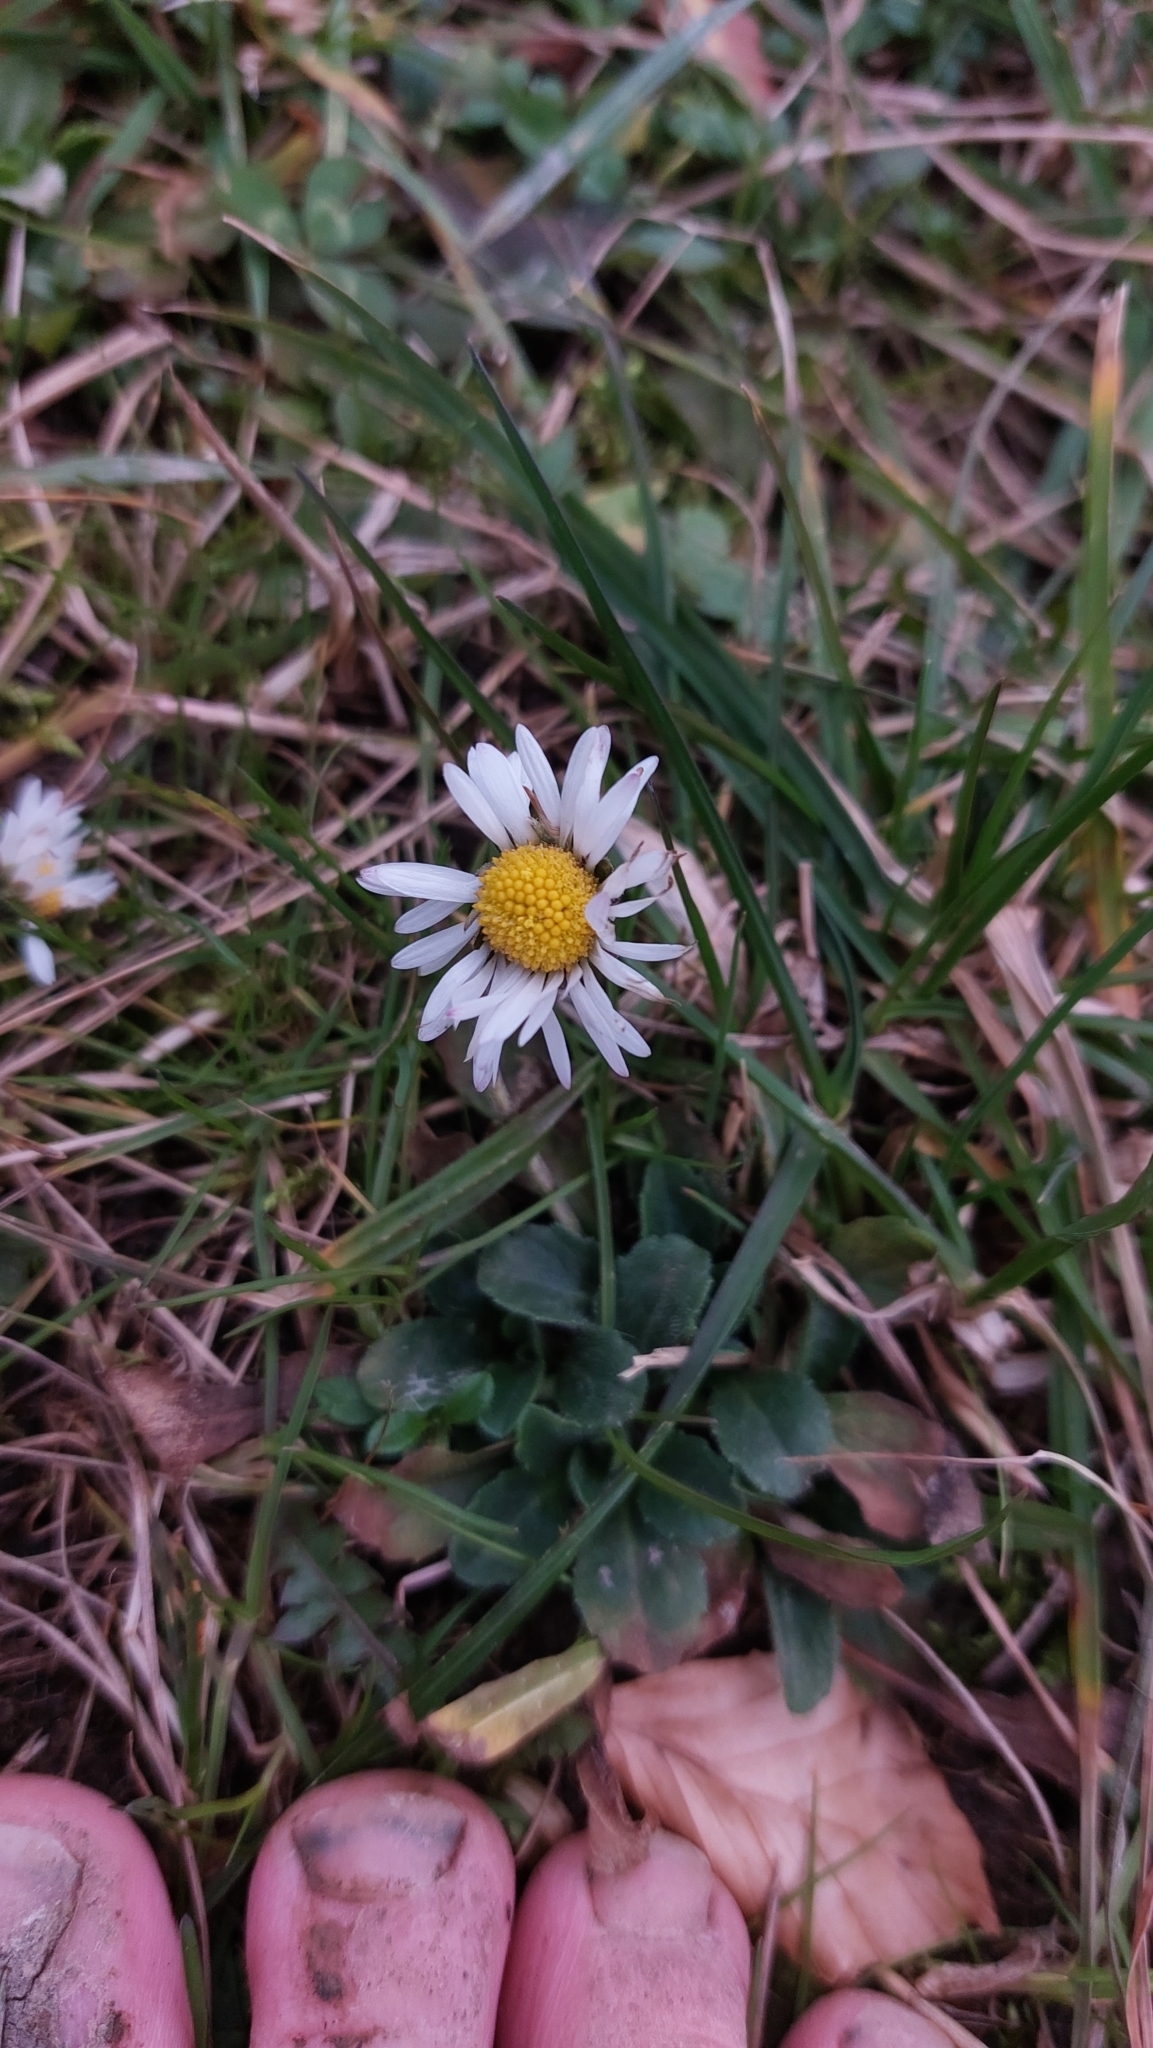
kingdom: Plantae
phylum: Tracheophyta
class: Magnoliopsida
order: Asterales
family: Asteraceae
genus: Bellis
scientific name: Bellis perennis
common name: Lawndaisy
